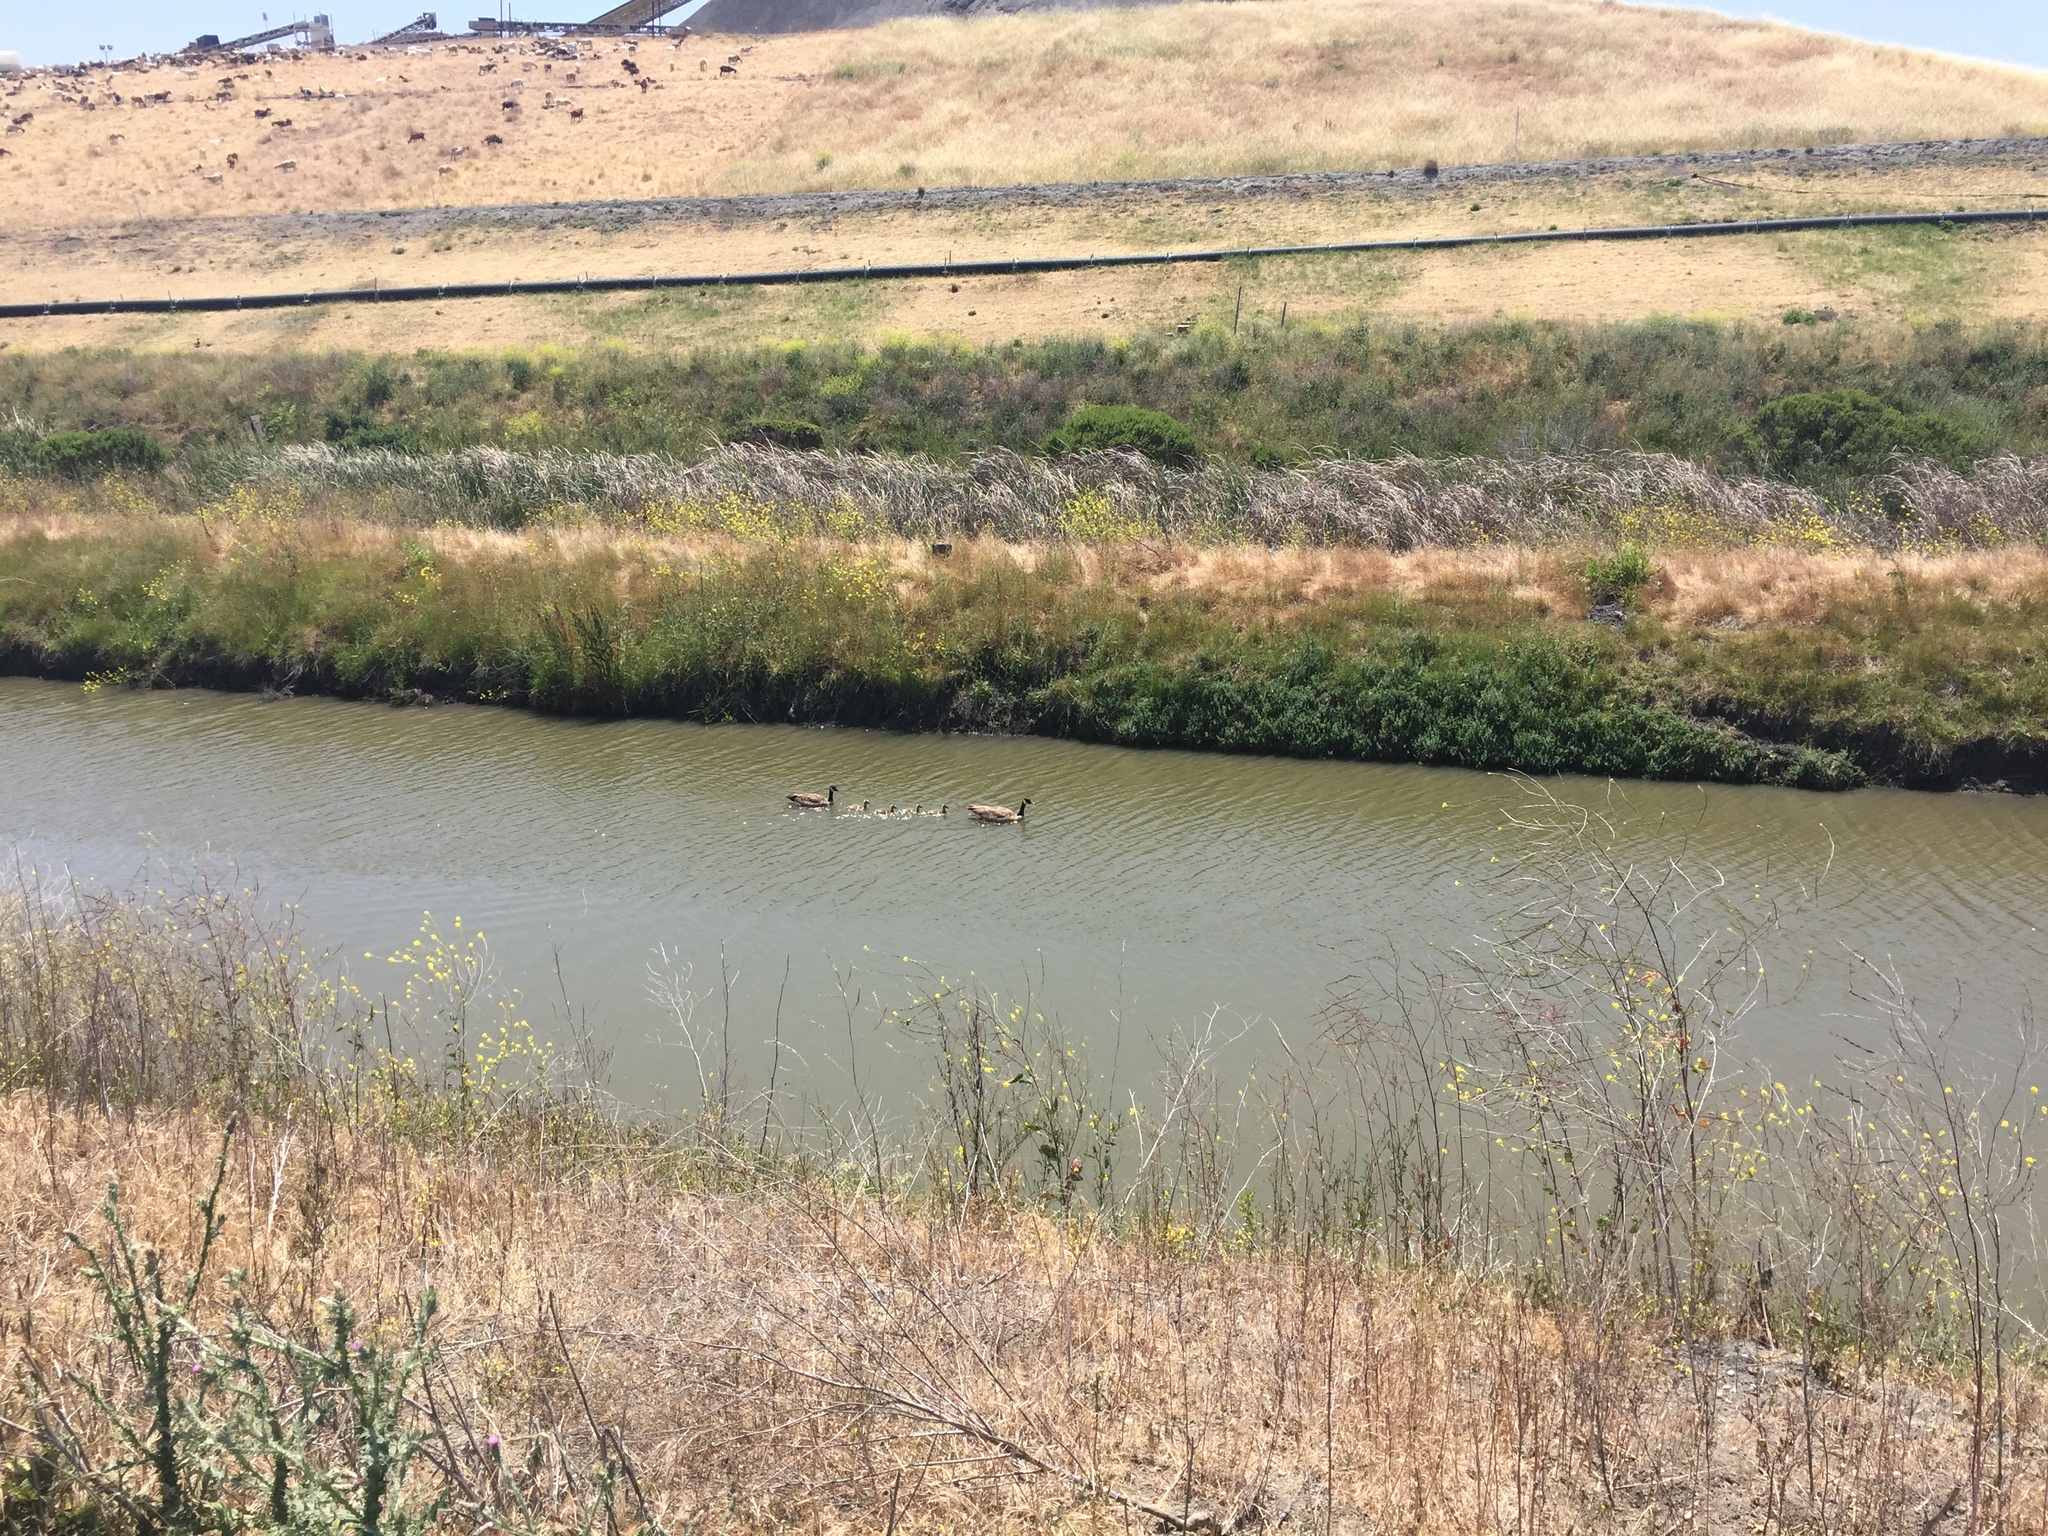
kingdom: Animalia
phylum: Chordata
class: Aves
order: Anseriformes
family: Anatidae
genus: Branta
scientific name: Branta canadensis
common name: Canada goose
